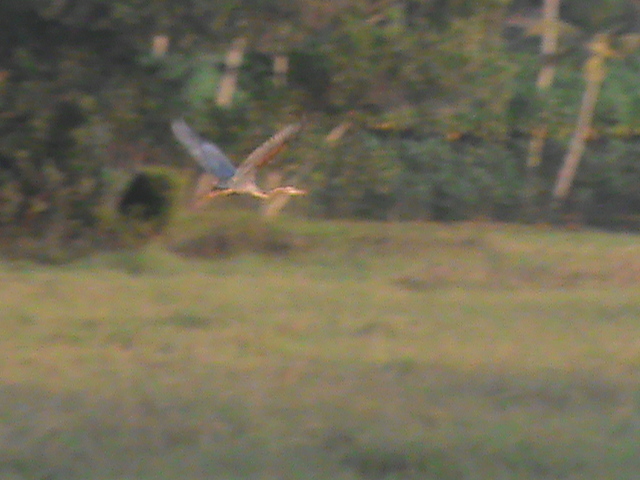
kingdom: Animalia
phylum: Chordata
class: Aves
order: Pelecaniformes
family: Ardeidae
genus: Ardea
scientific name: Ardea purpurea
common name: Purple heron
